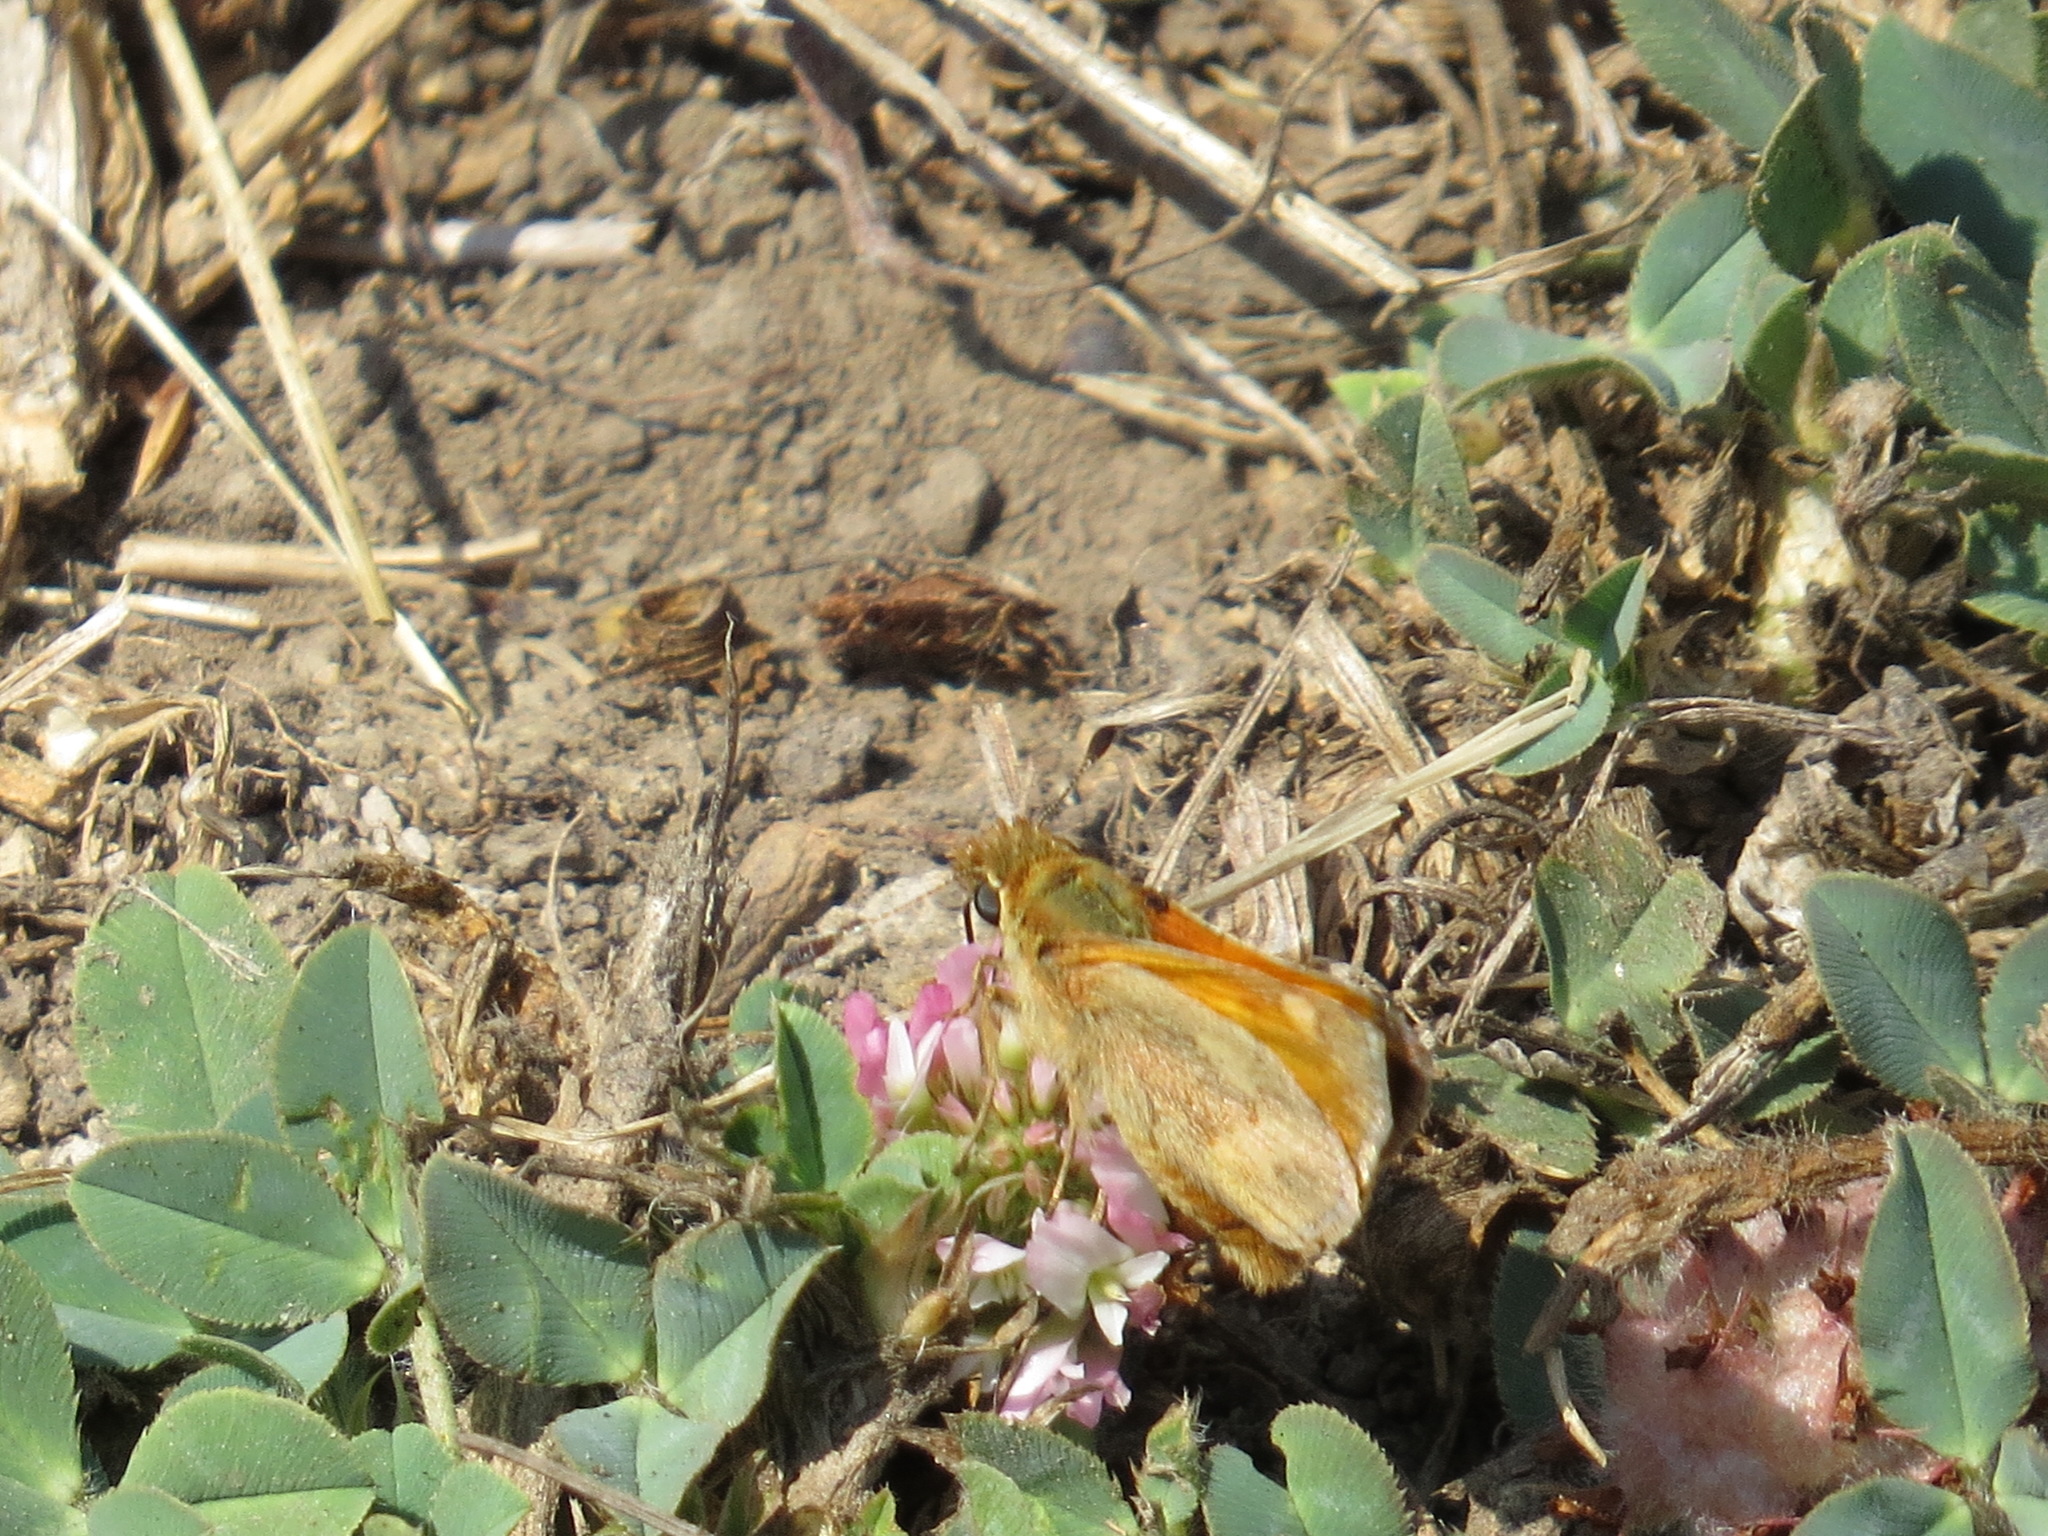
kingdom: Animalia
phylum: Arthropoda
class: Insecta
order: Lepidoptera
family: Hesperiidae
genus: Ochlodes
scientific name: Ochlodes sylvanoides
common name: Woodland skipper
